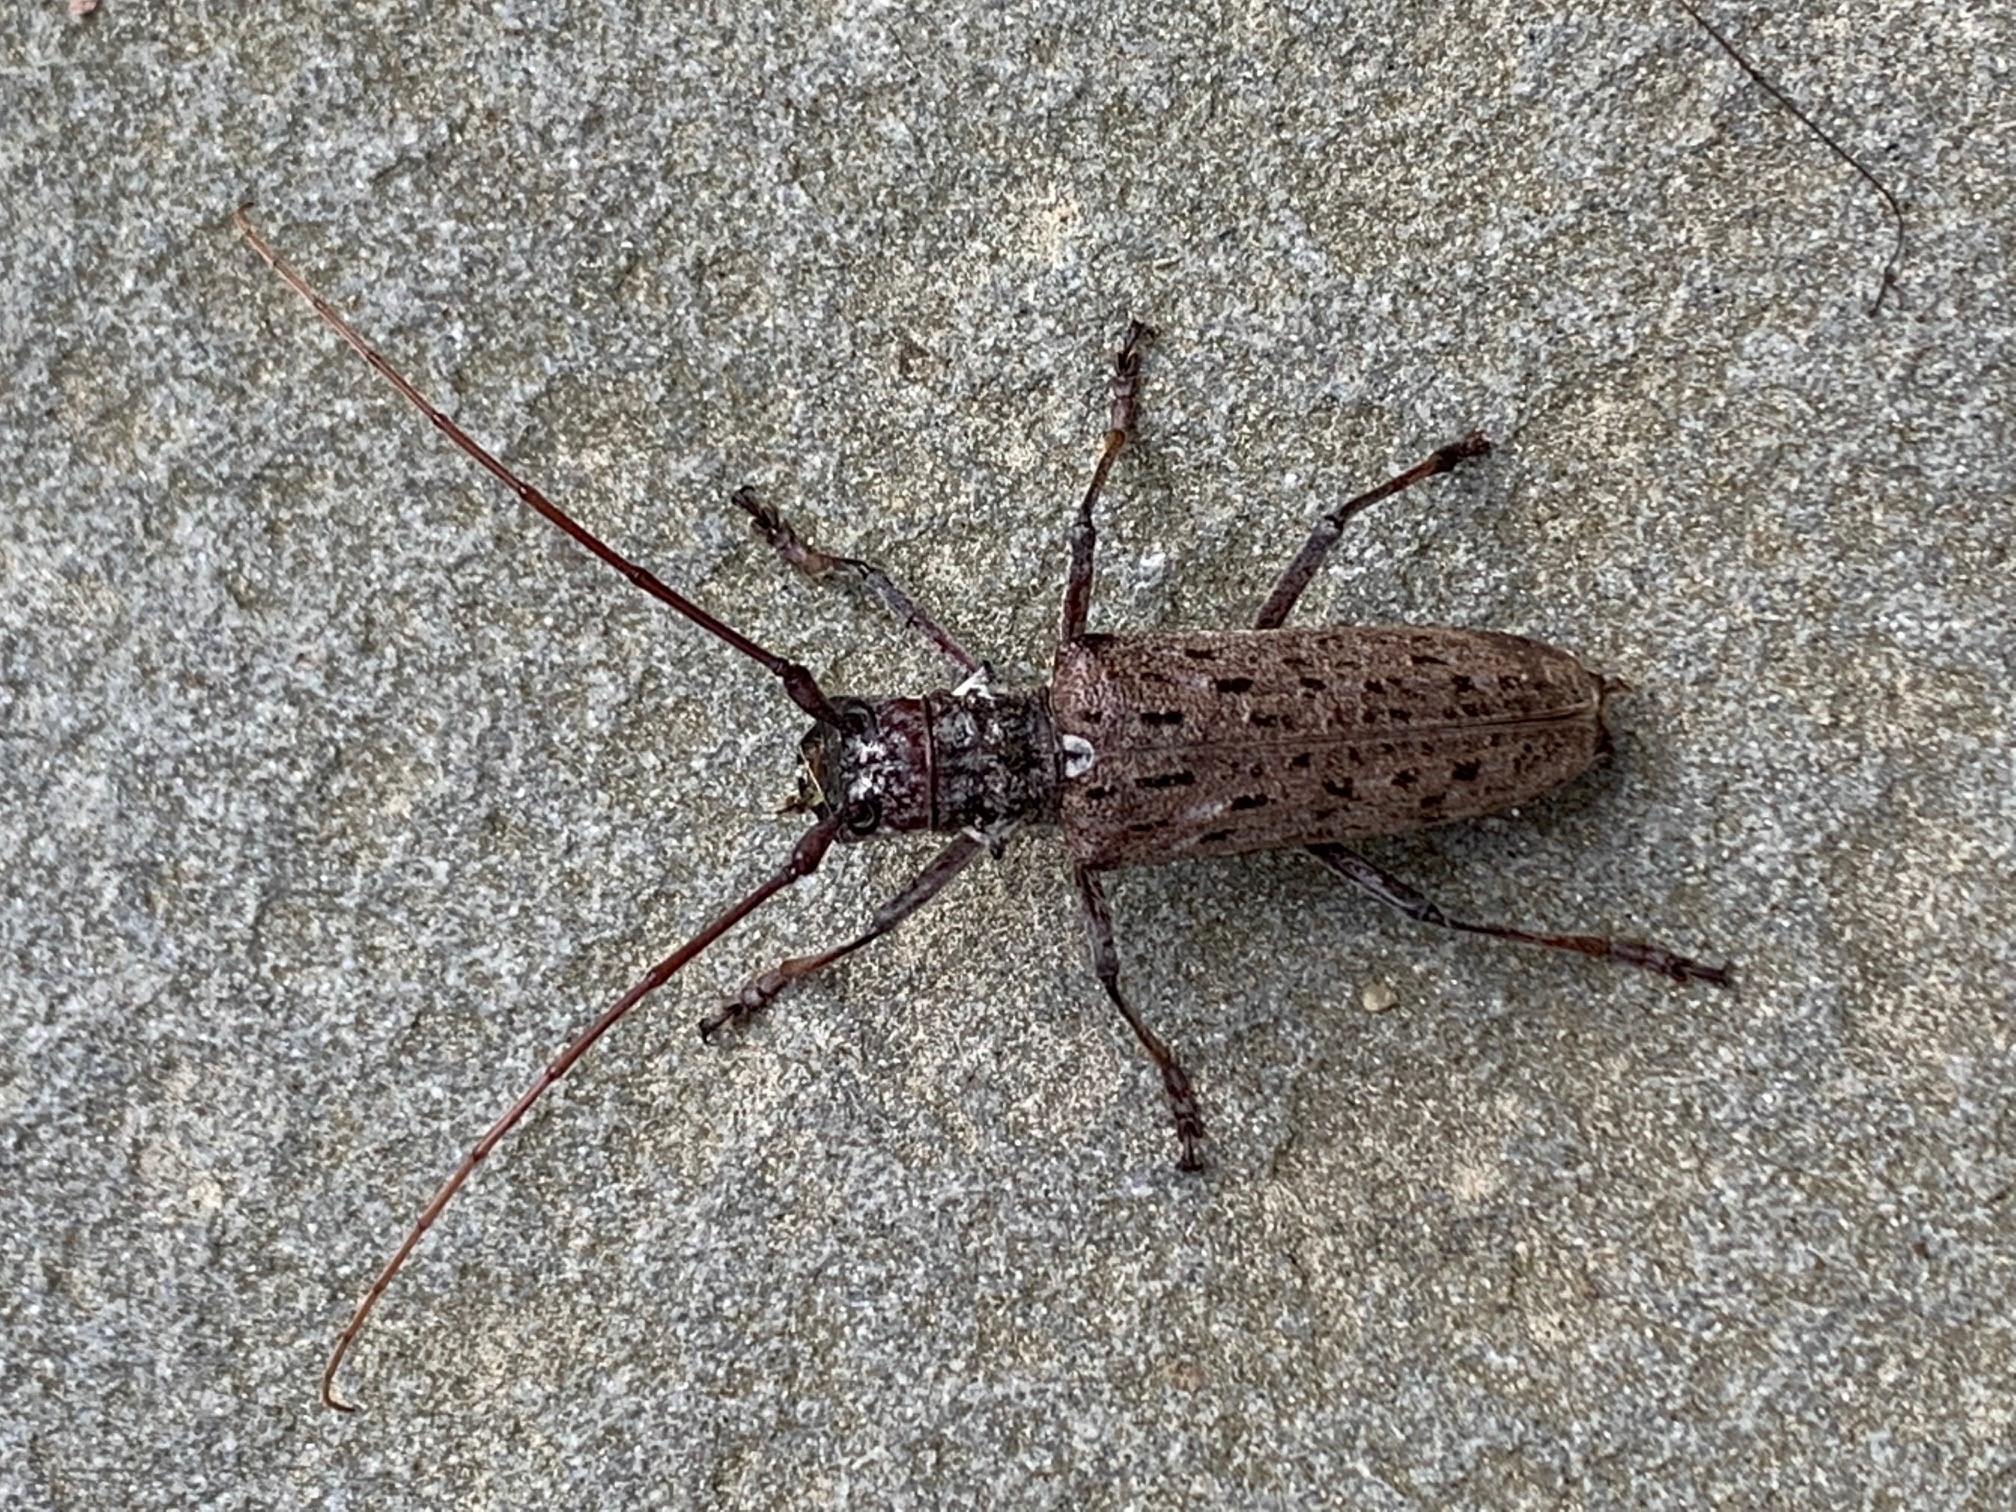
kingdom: Animalia
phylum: Arthropoda
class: Insecta
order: Coleoptera
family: Cerambycidae
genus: Monochamus
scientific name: Monochamus notatus
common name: Northeastern pine sawyer beetle
